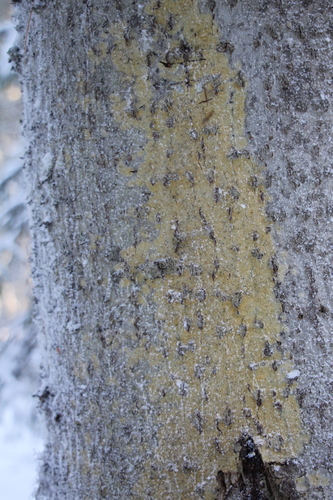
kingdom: Fungi
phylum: Ascomycota
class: Coniocybomycetes
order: Coniocybales
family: Coniocybaceae
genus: Chaenotheca
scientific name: Chaenotheca
